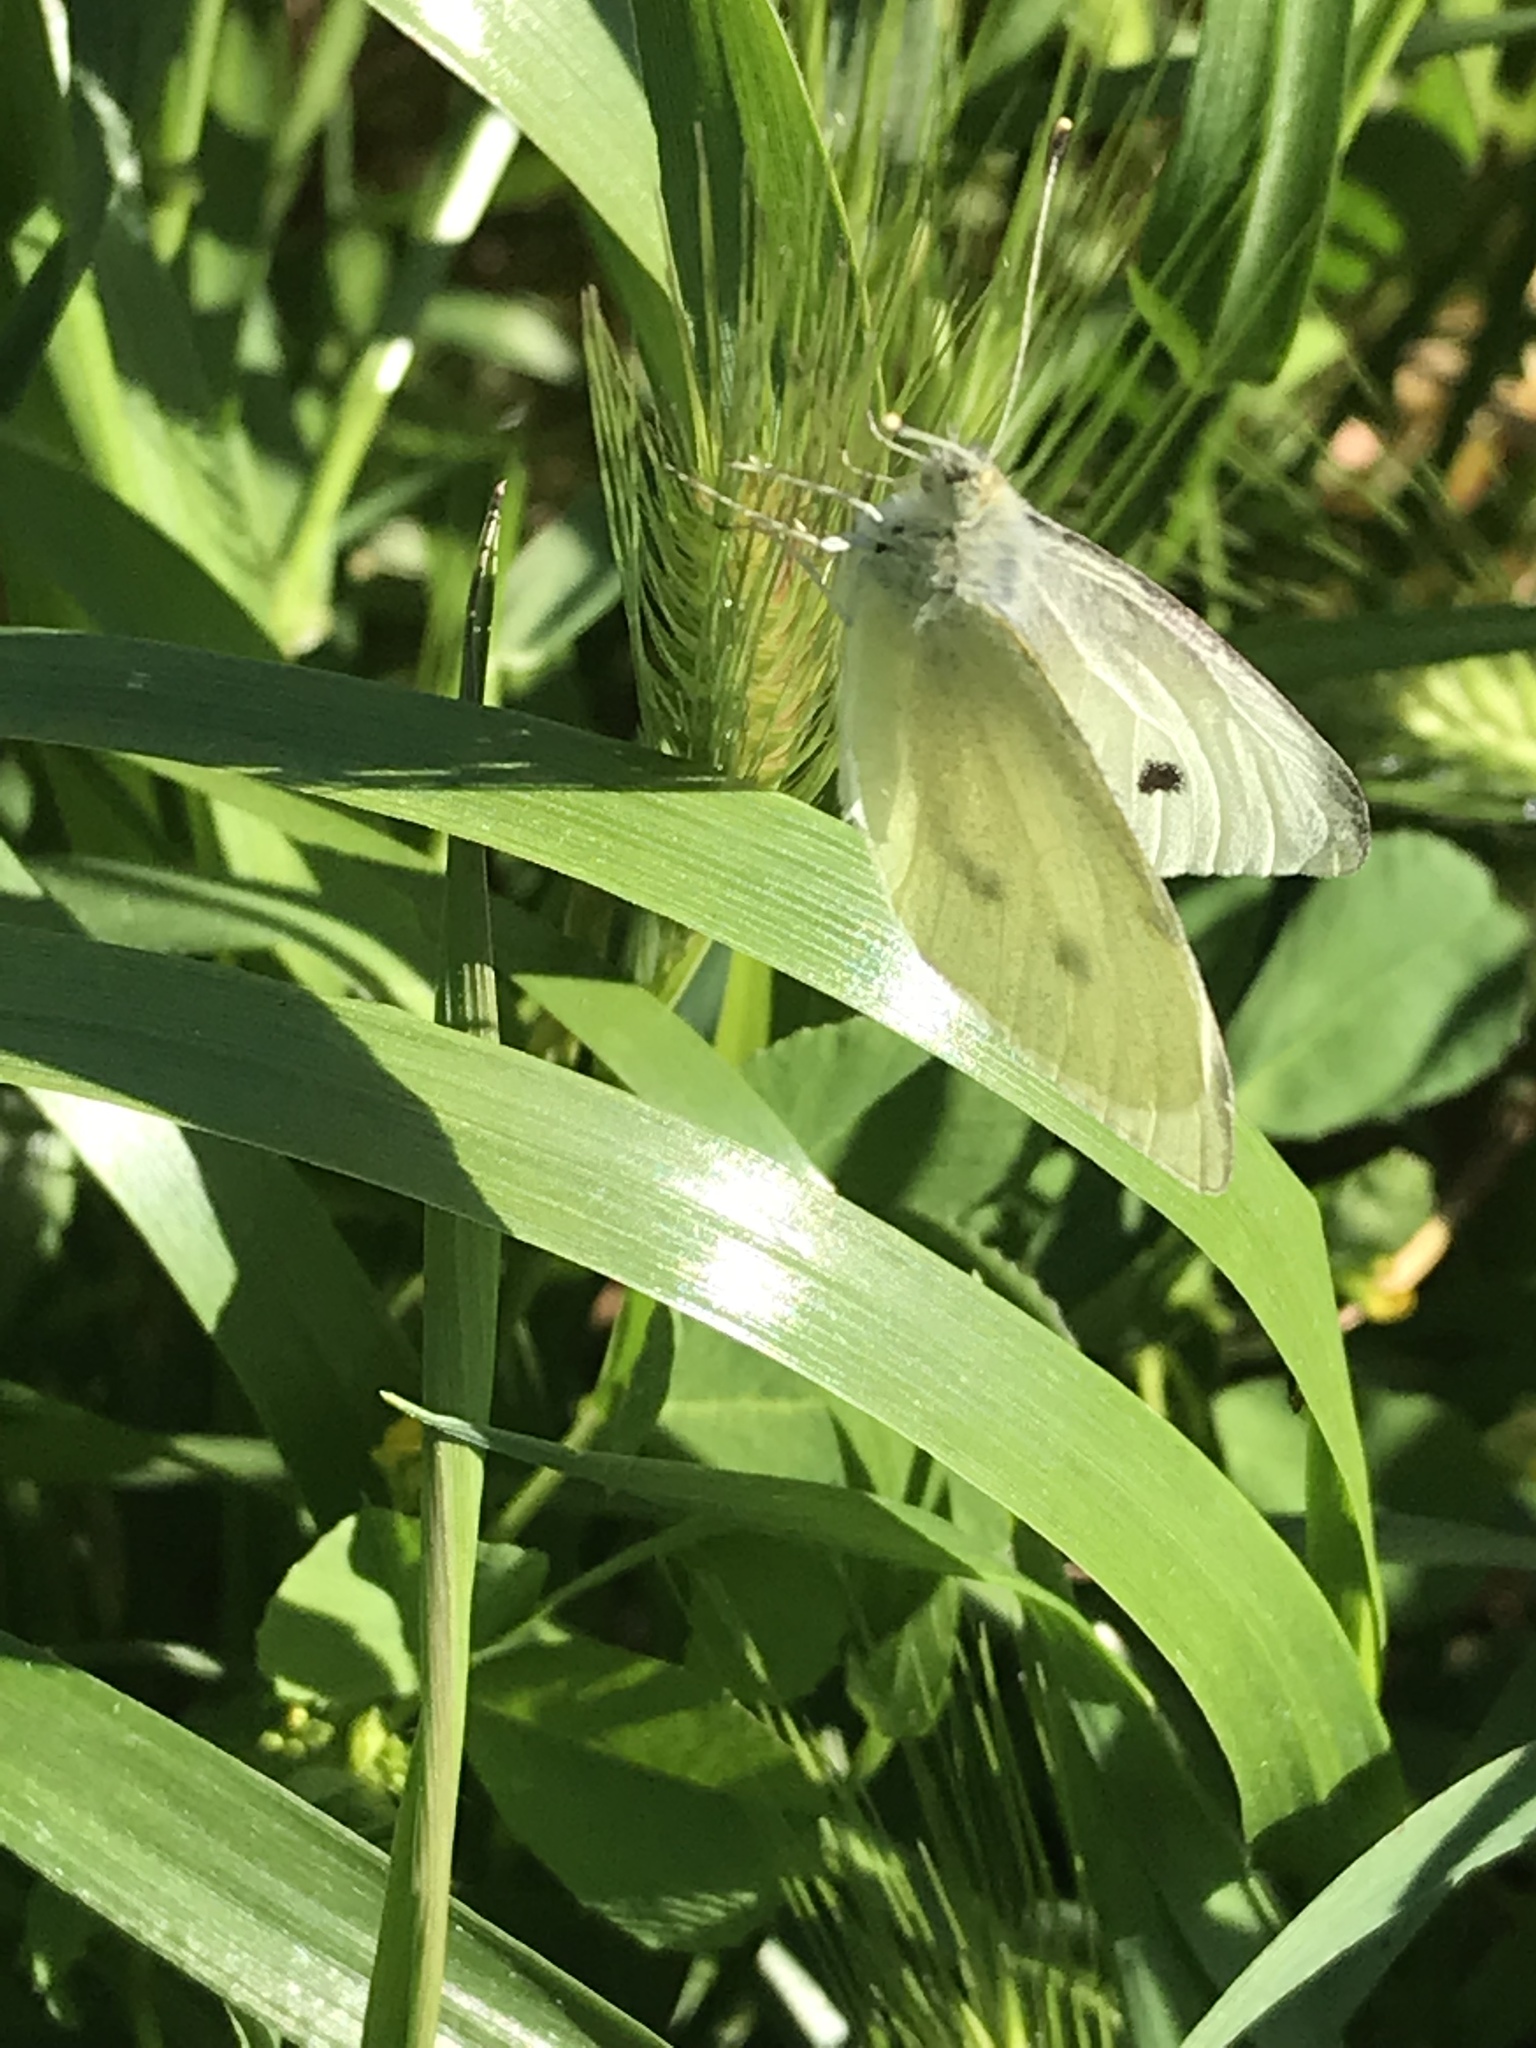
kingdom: Animalia
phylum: Arthropoda
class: Insecta
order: Lepidoptera
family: Pieridae
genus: Pieris
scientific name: Pieris rapae
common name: Small white
